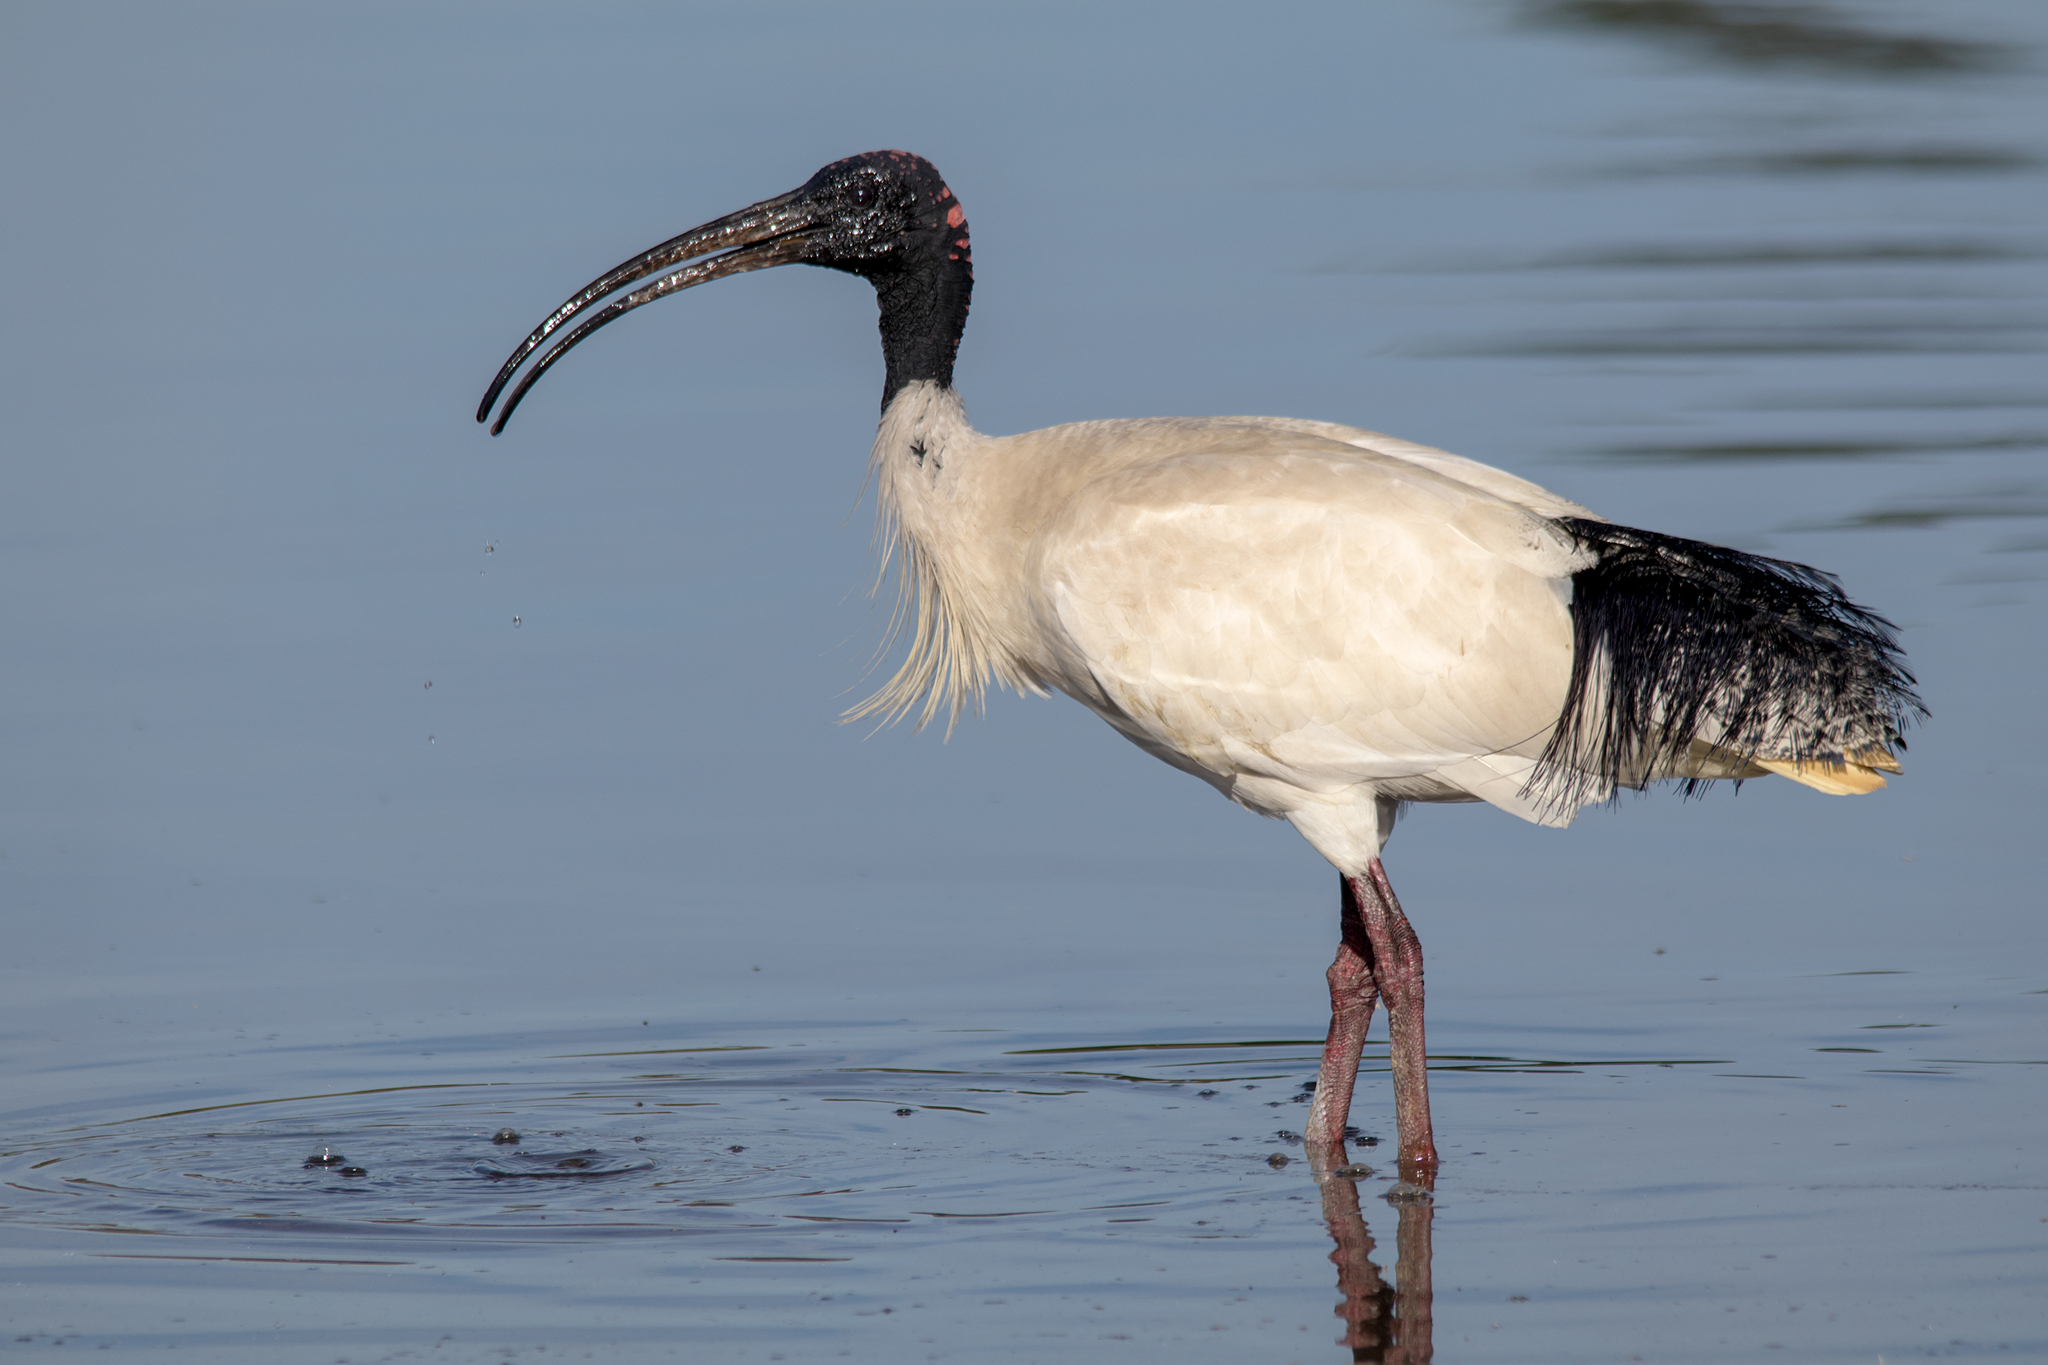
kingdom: Animalia
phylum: Chordata
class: Aves
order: Pelecaniformes
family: Threskiornithidae
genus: Threskiornis
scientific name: Threskiornis molucca
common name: Australian white ibis
